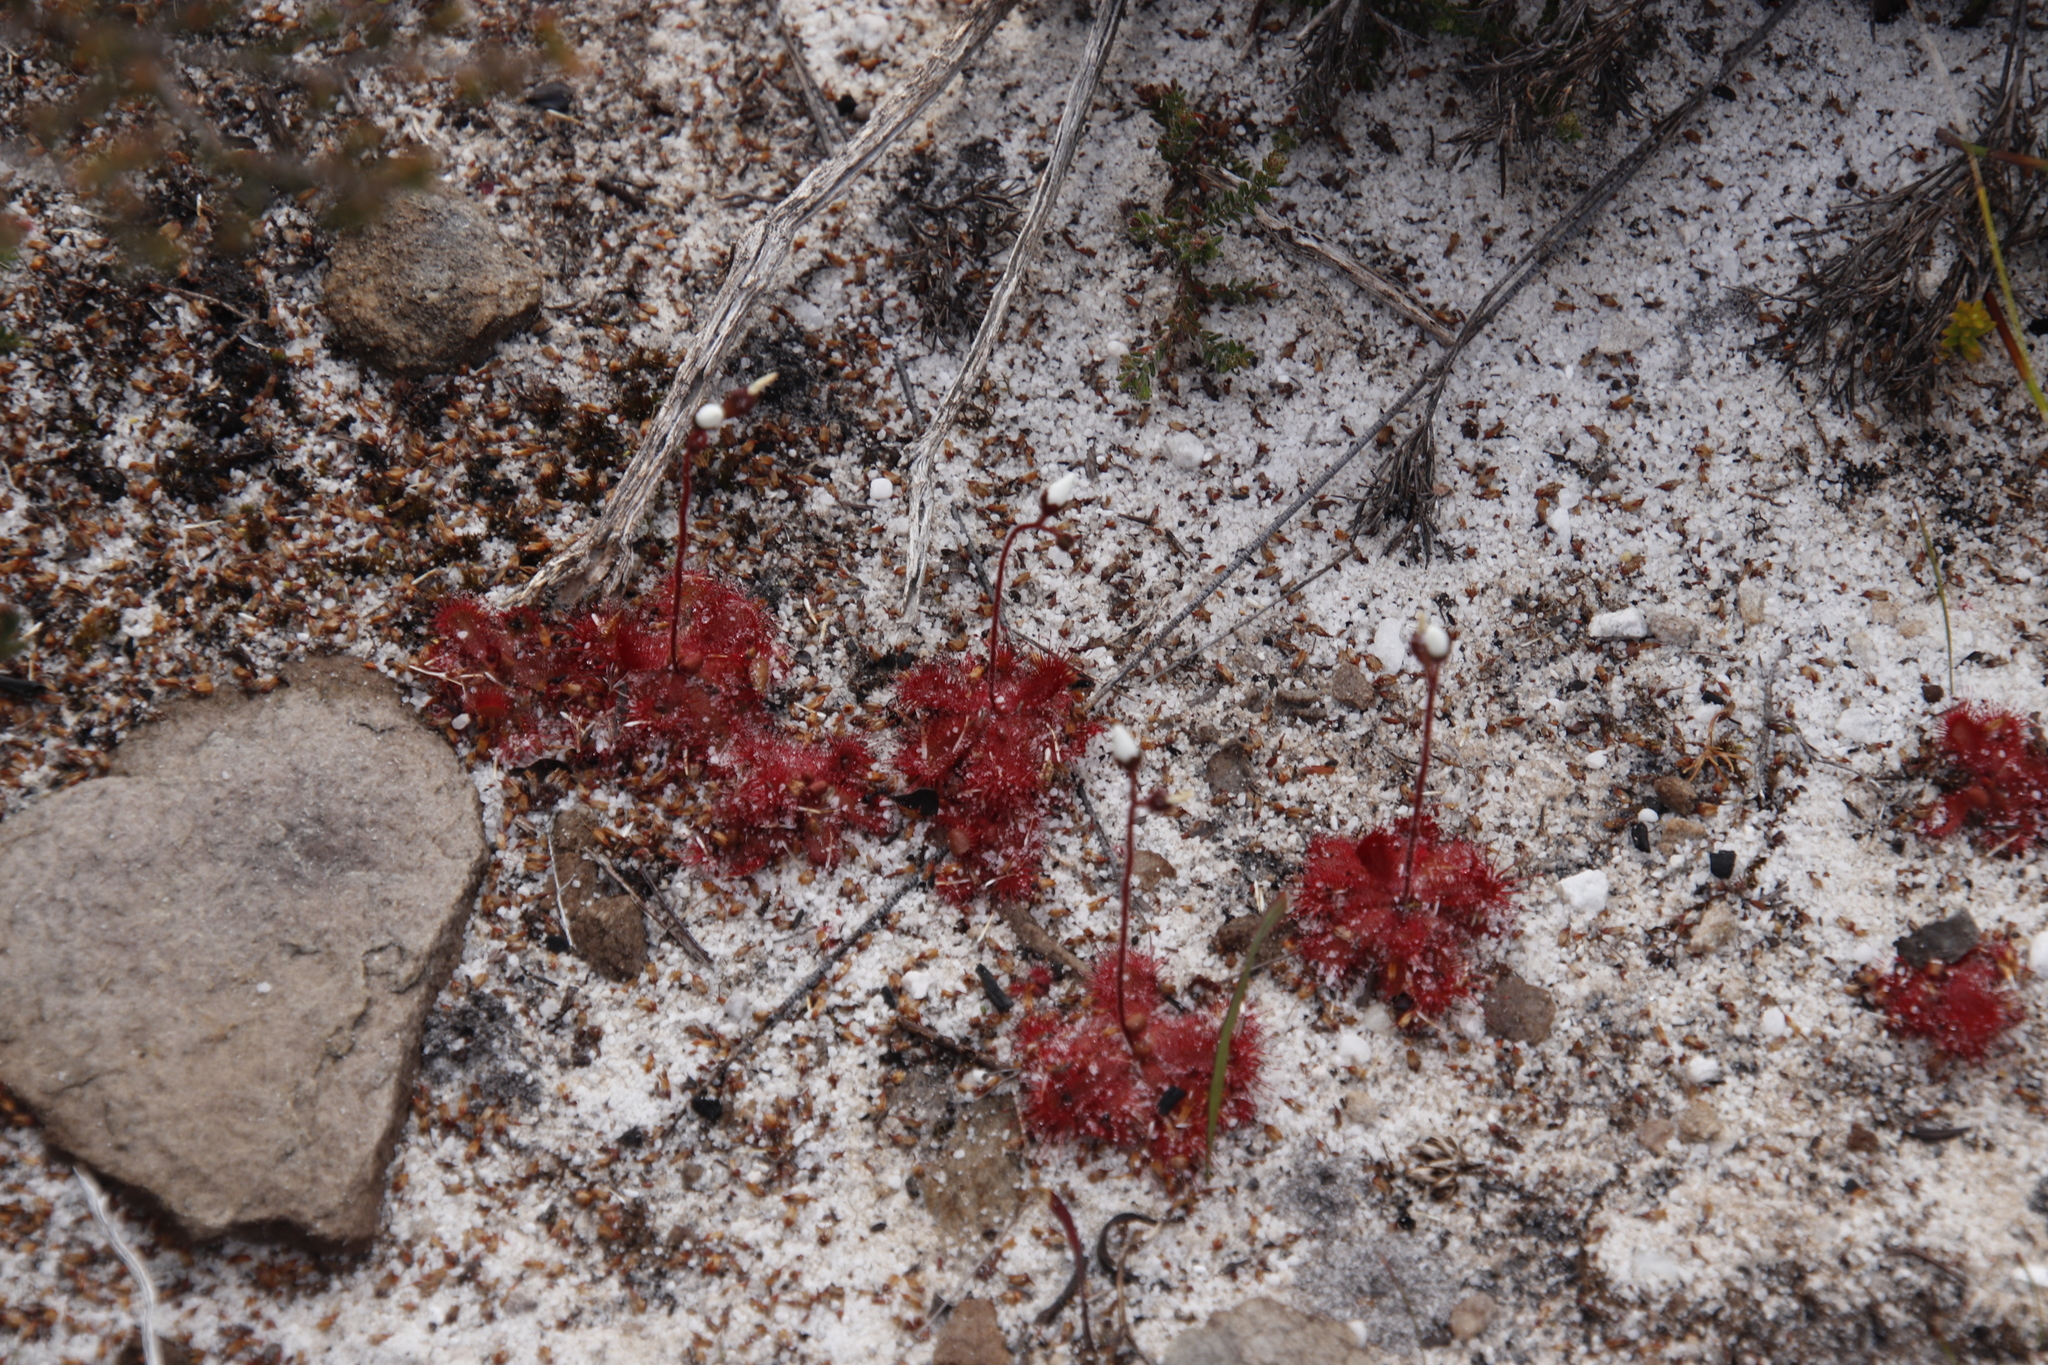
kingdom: Plantae
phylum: Tracheophyta
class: Magnoliopsida
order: Caryophyllales
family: Droseraceae
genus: Drosera
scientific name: Drosera trinervia
